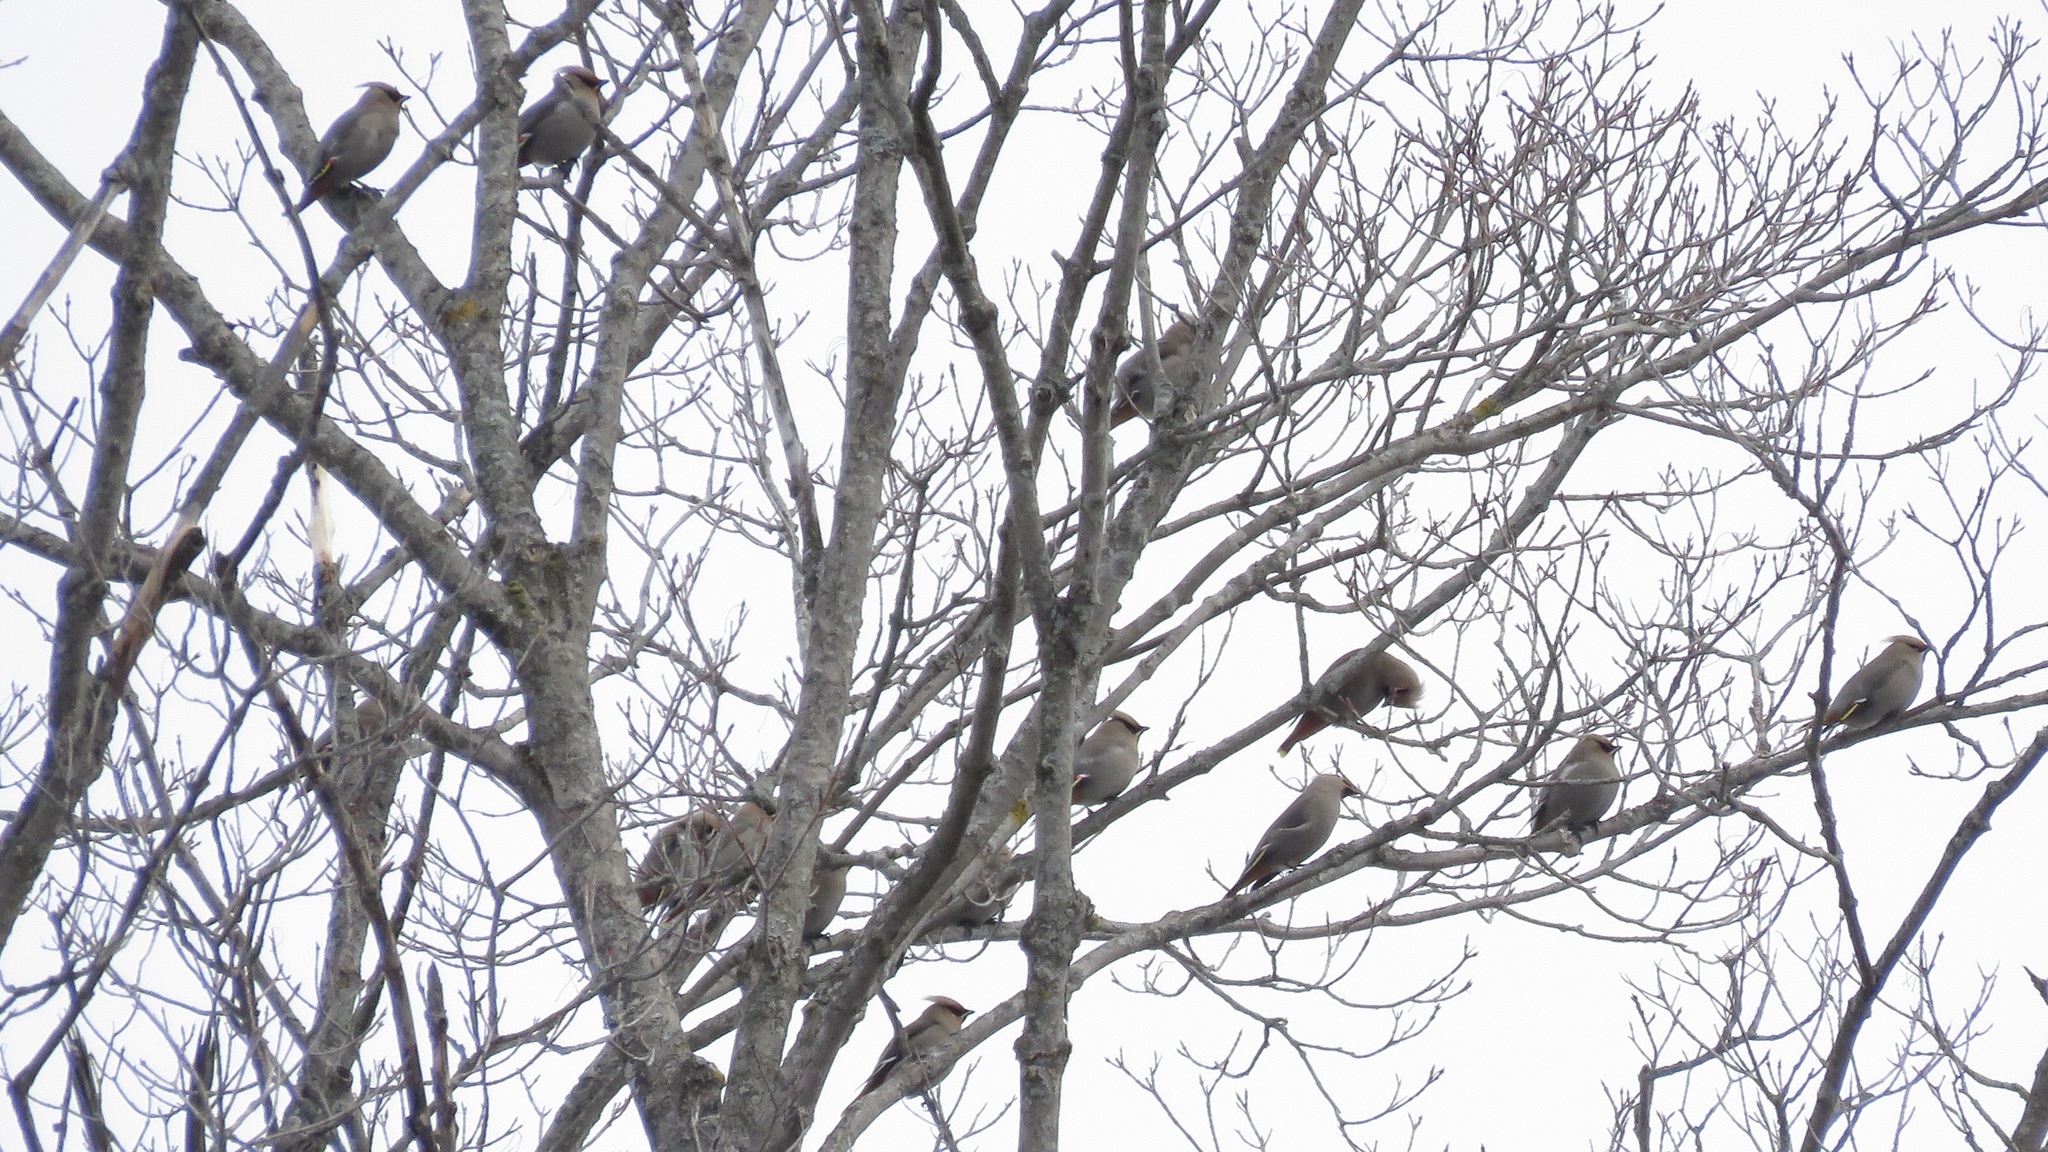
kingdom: Animalia
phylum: Chordata
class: Aves
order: Passeriformes
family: Bombycillidae
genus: Bombycilla
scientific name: Bombycilla garrulus
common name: Bohemian waxwing
